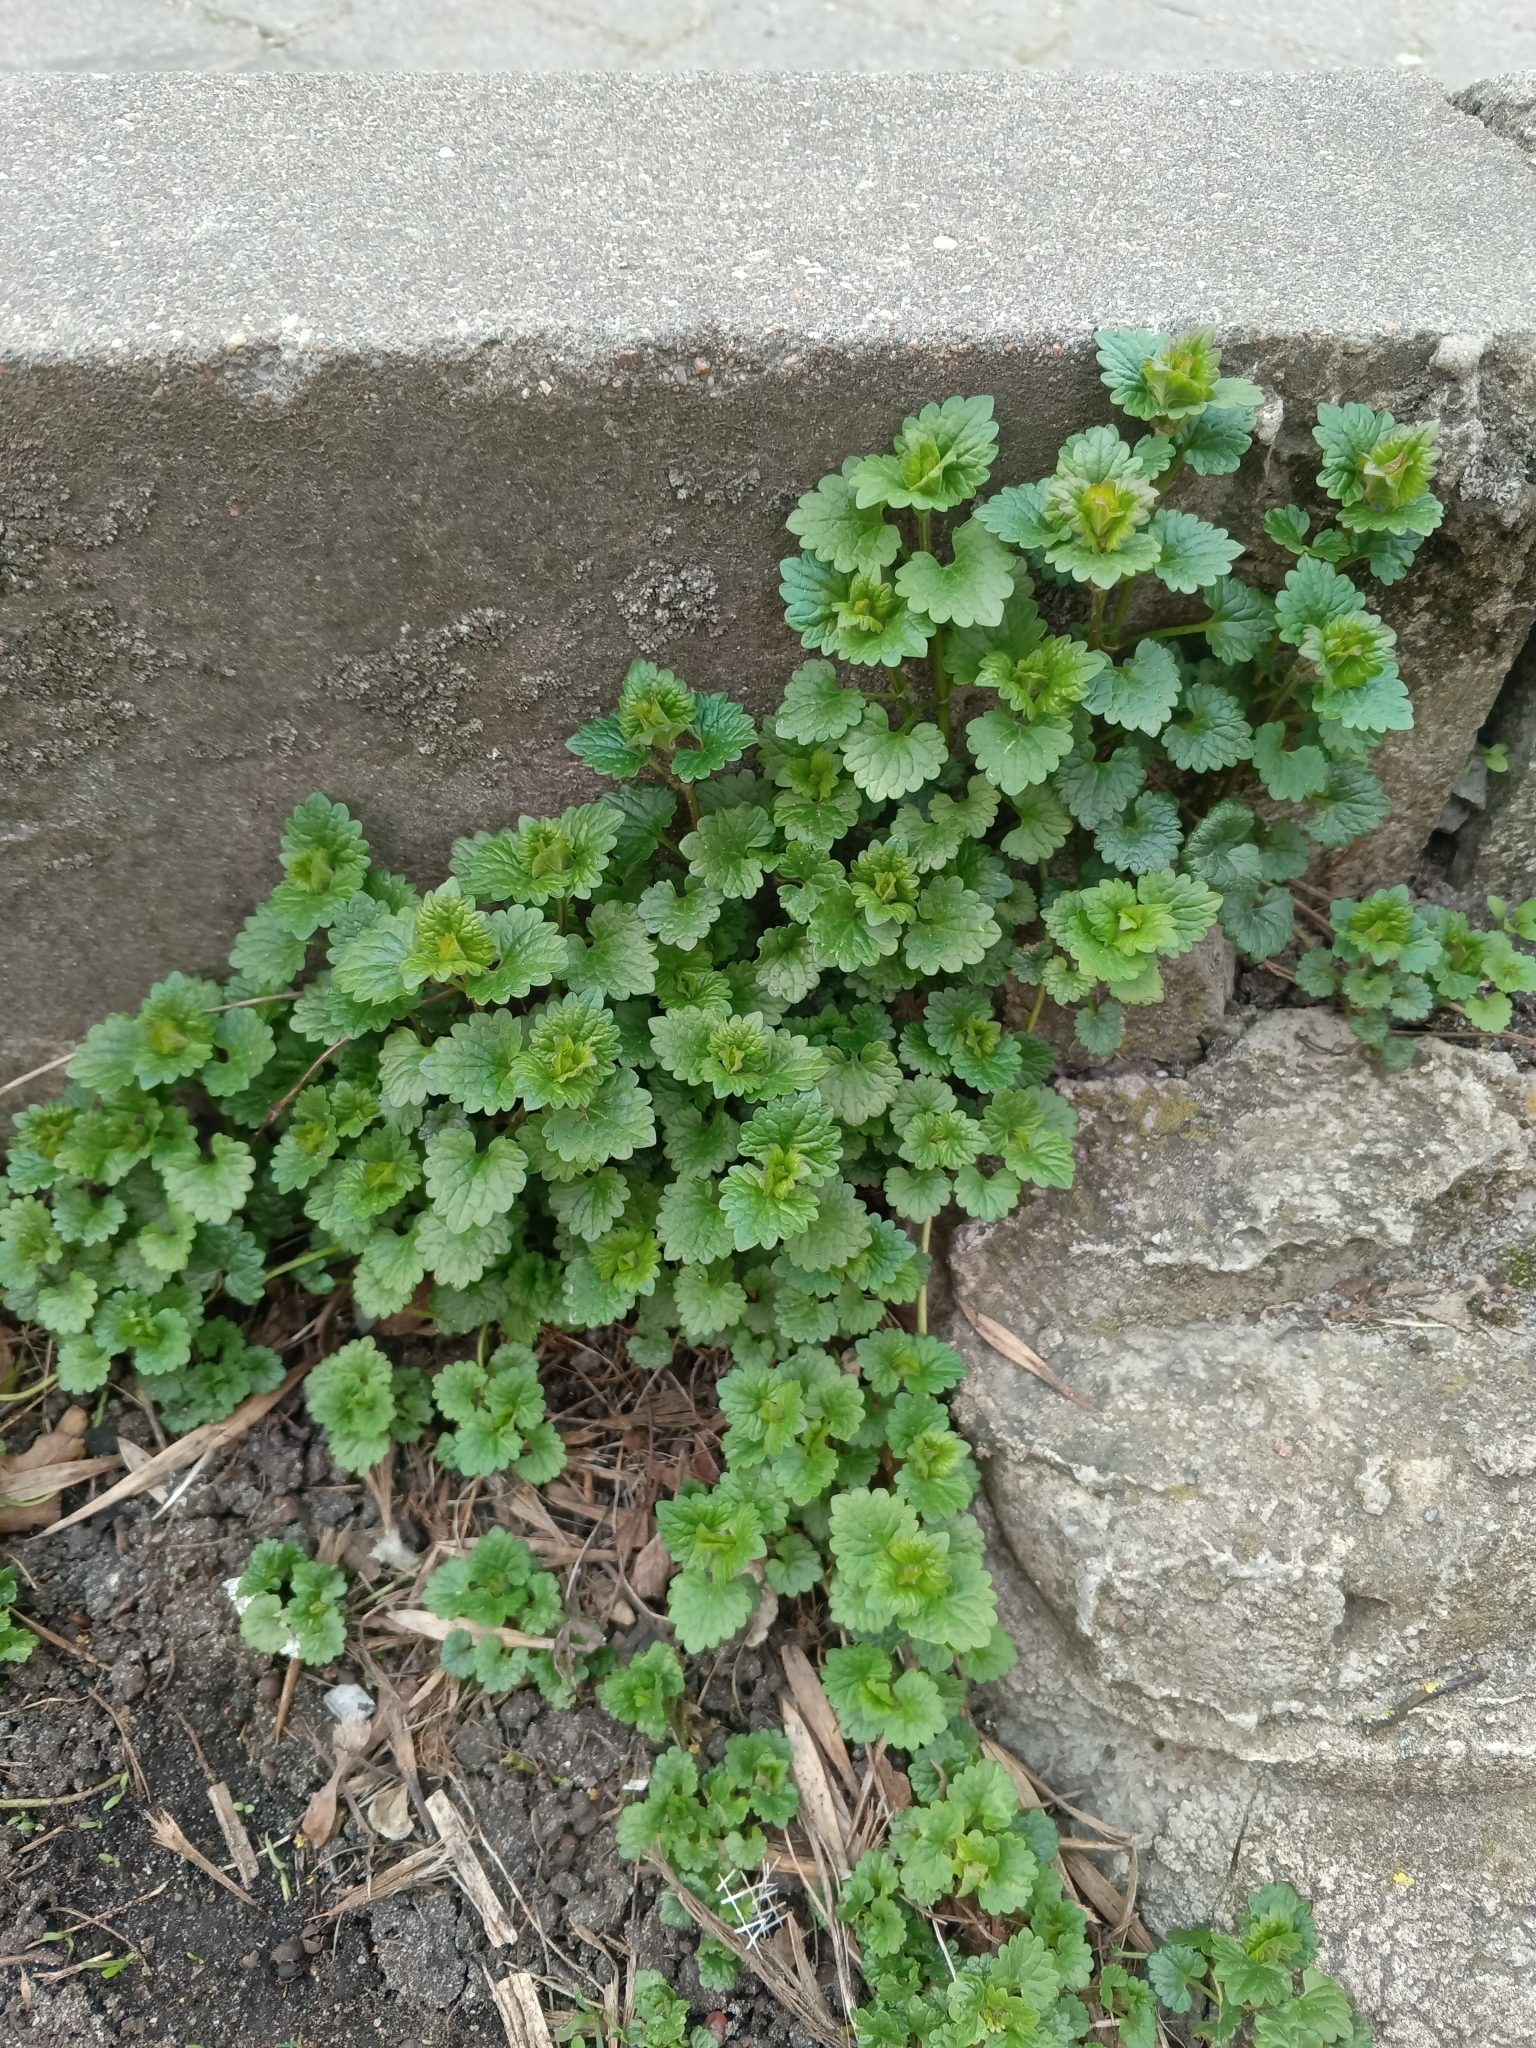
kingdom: Plantae
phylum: Tracheophyta
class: Magnoliopsida
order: Lamiales
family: Lamiaceae
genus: Glechoma
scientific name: Glechoma hederacea
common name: Ground ivy
